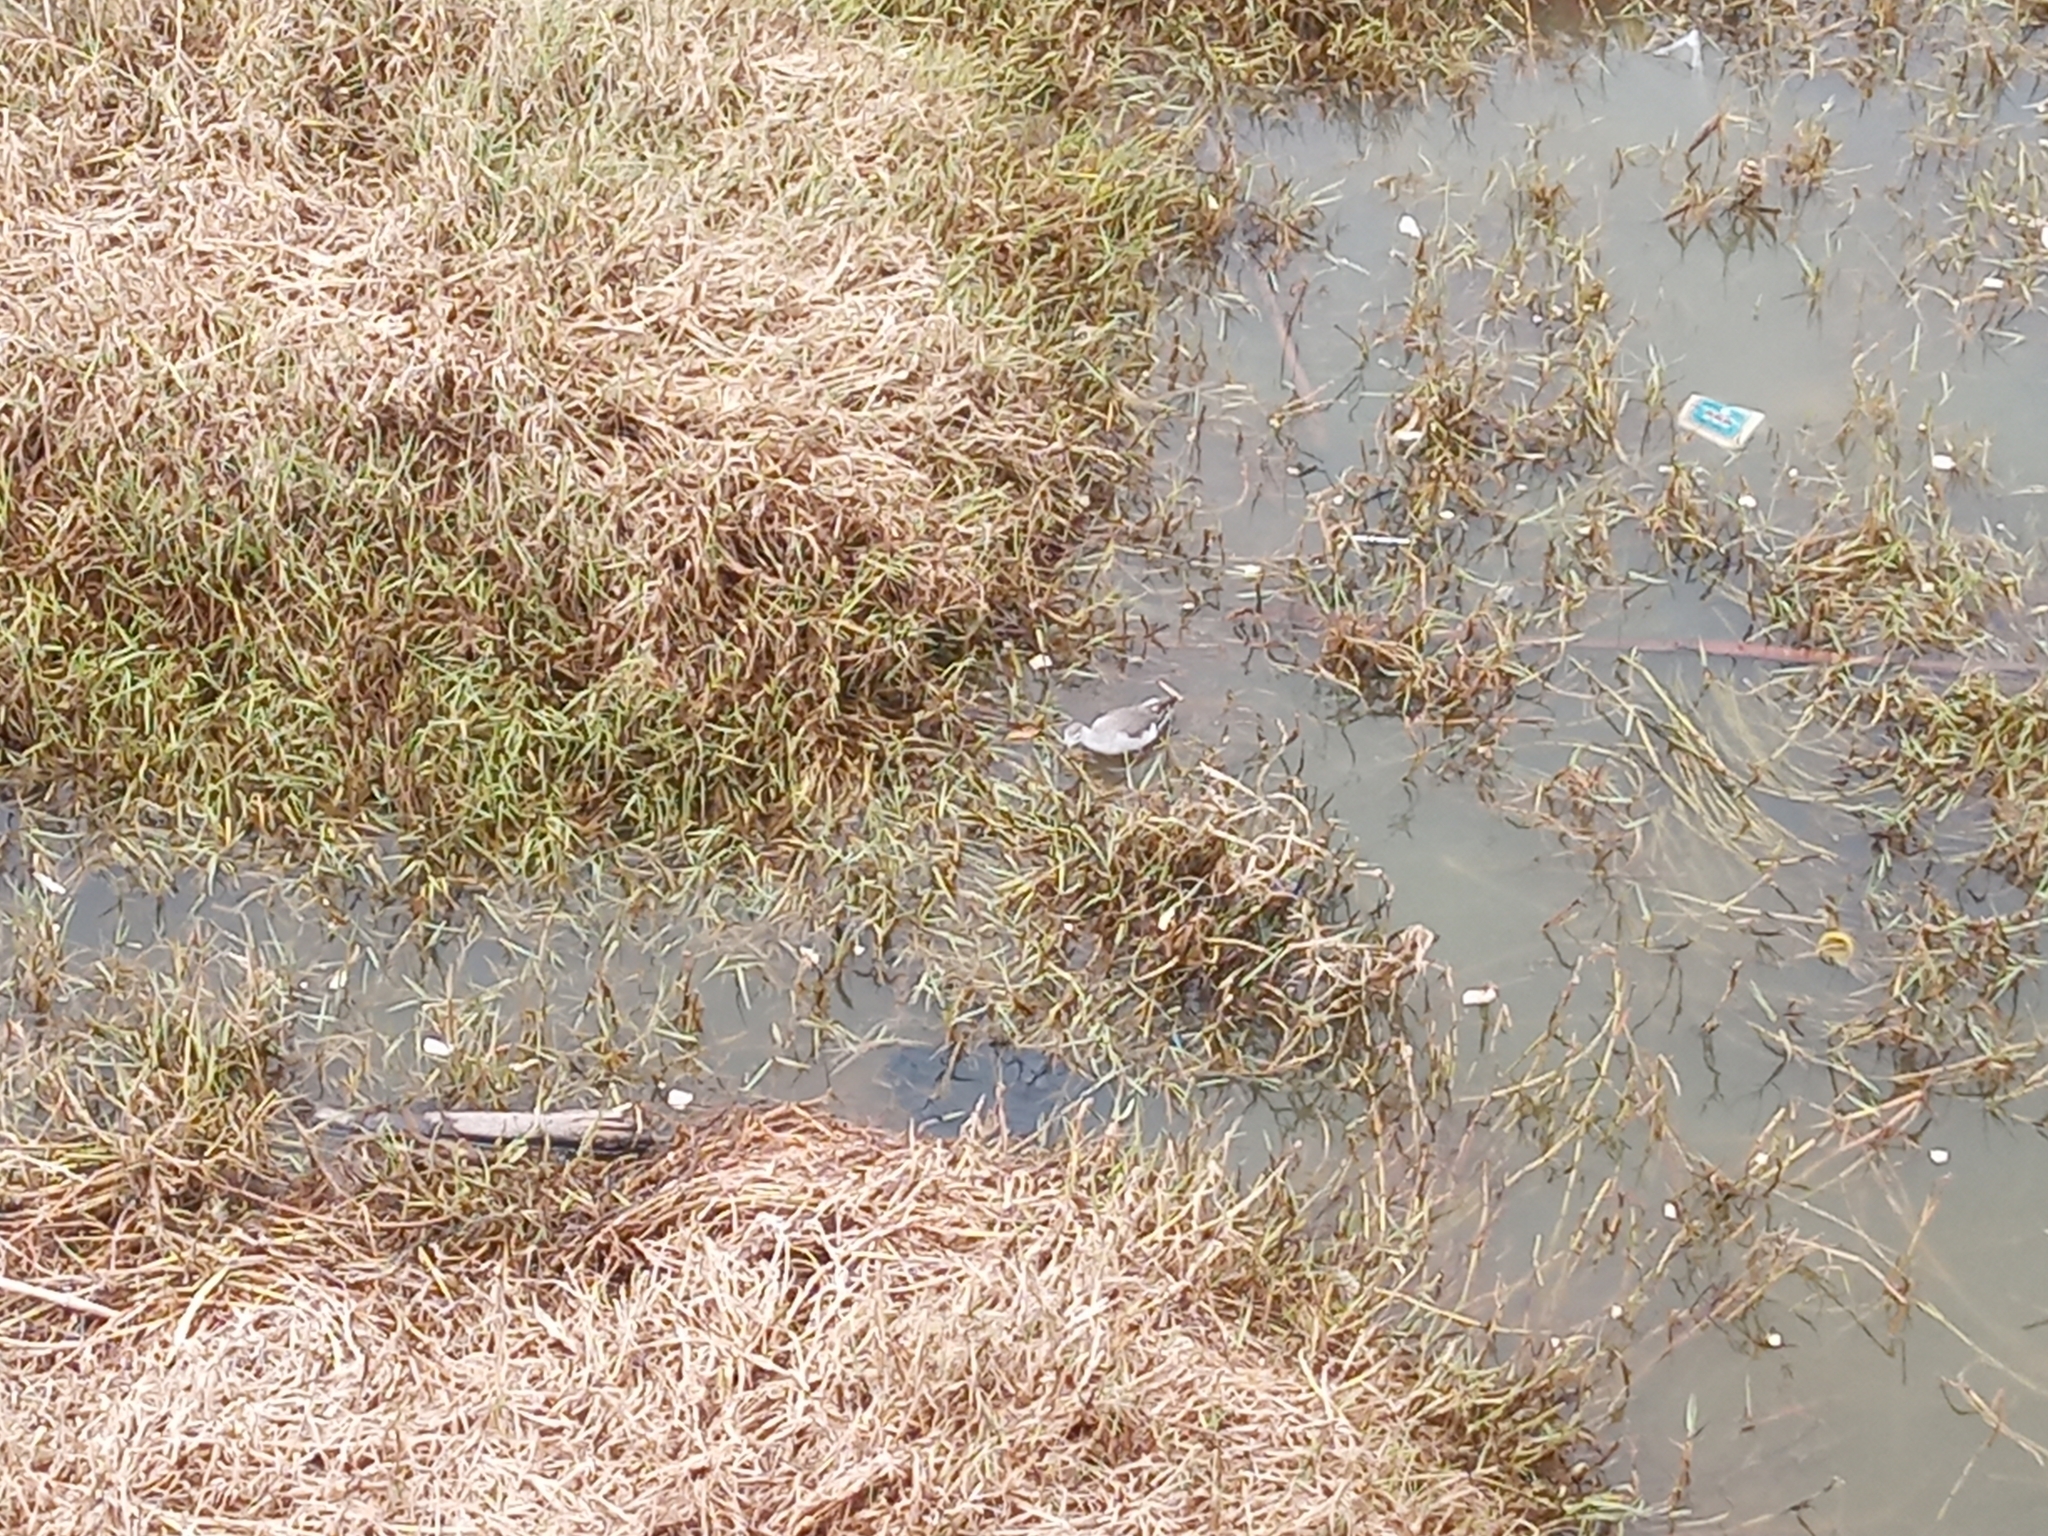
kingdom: Animalia
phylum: Chordata
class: Aves
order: Charadriiformes
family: Scolopacidae
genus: Phalaropus
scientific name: Phalaropus tricolor
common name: Wilson's phalarope
